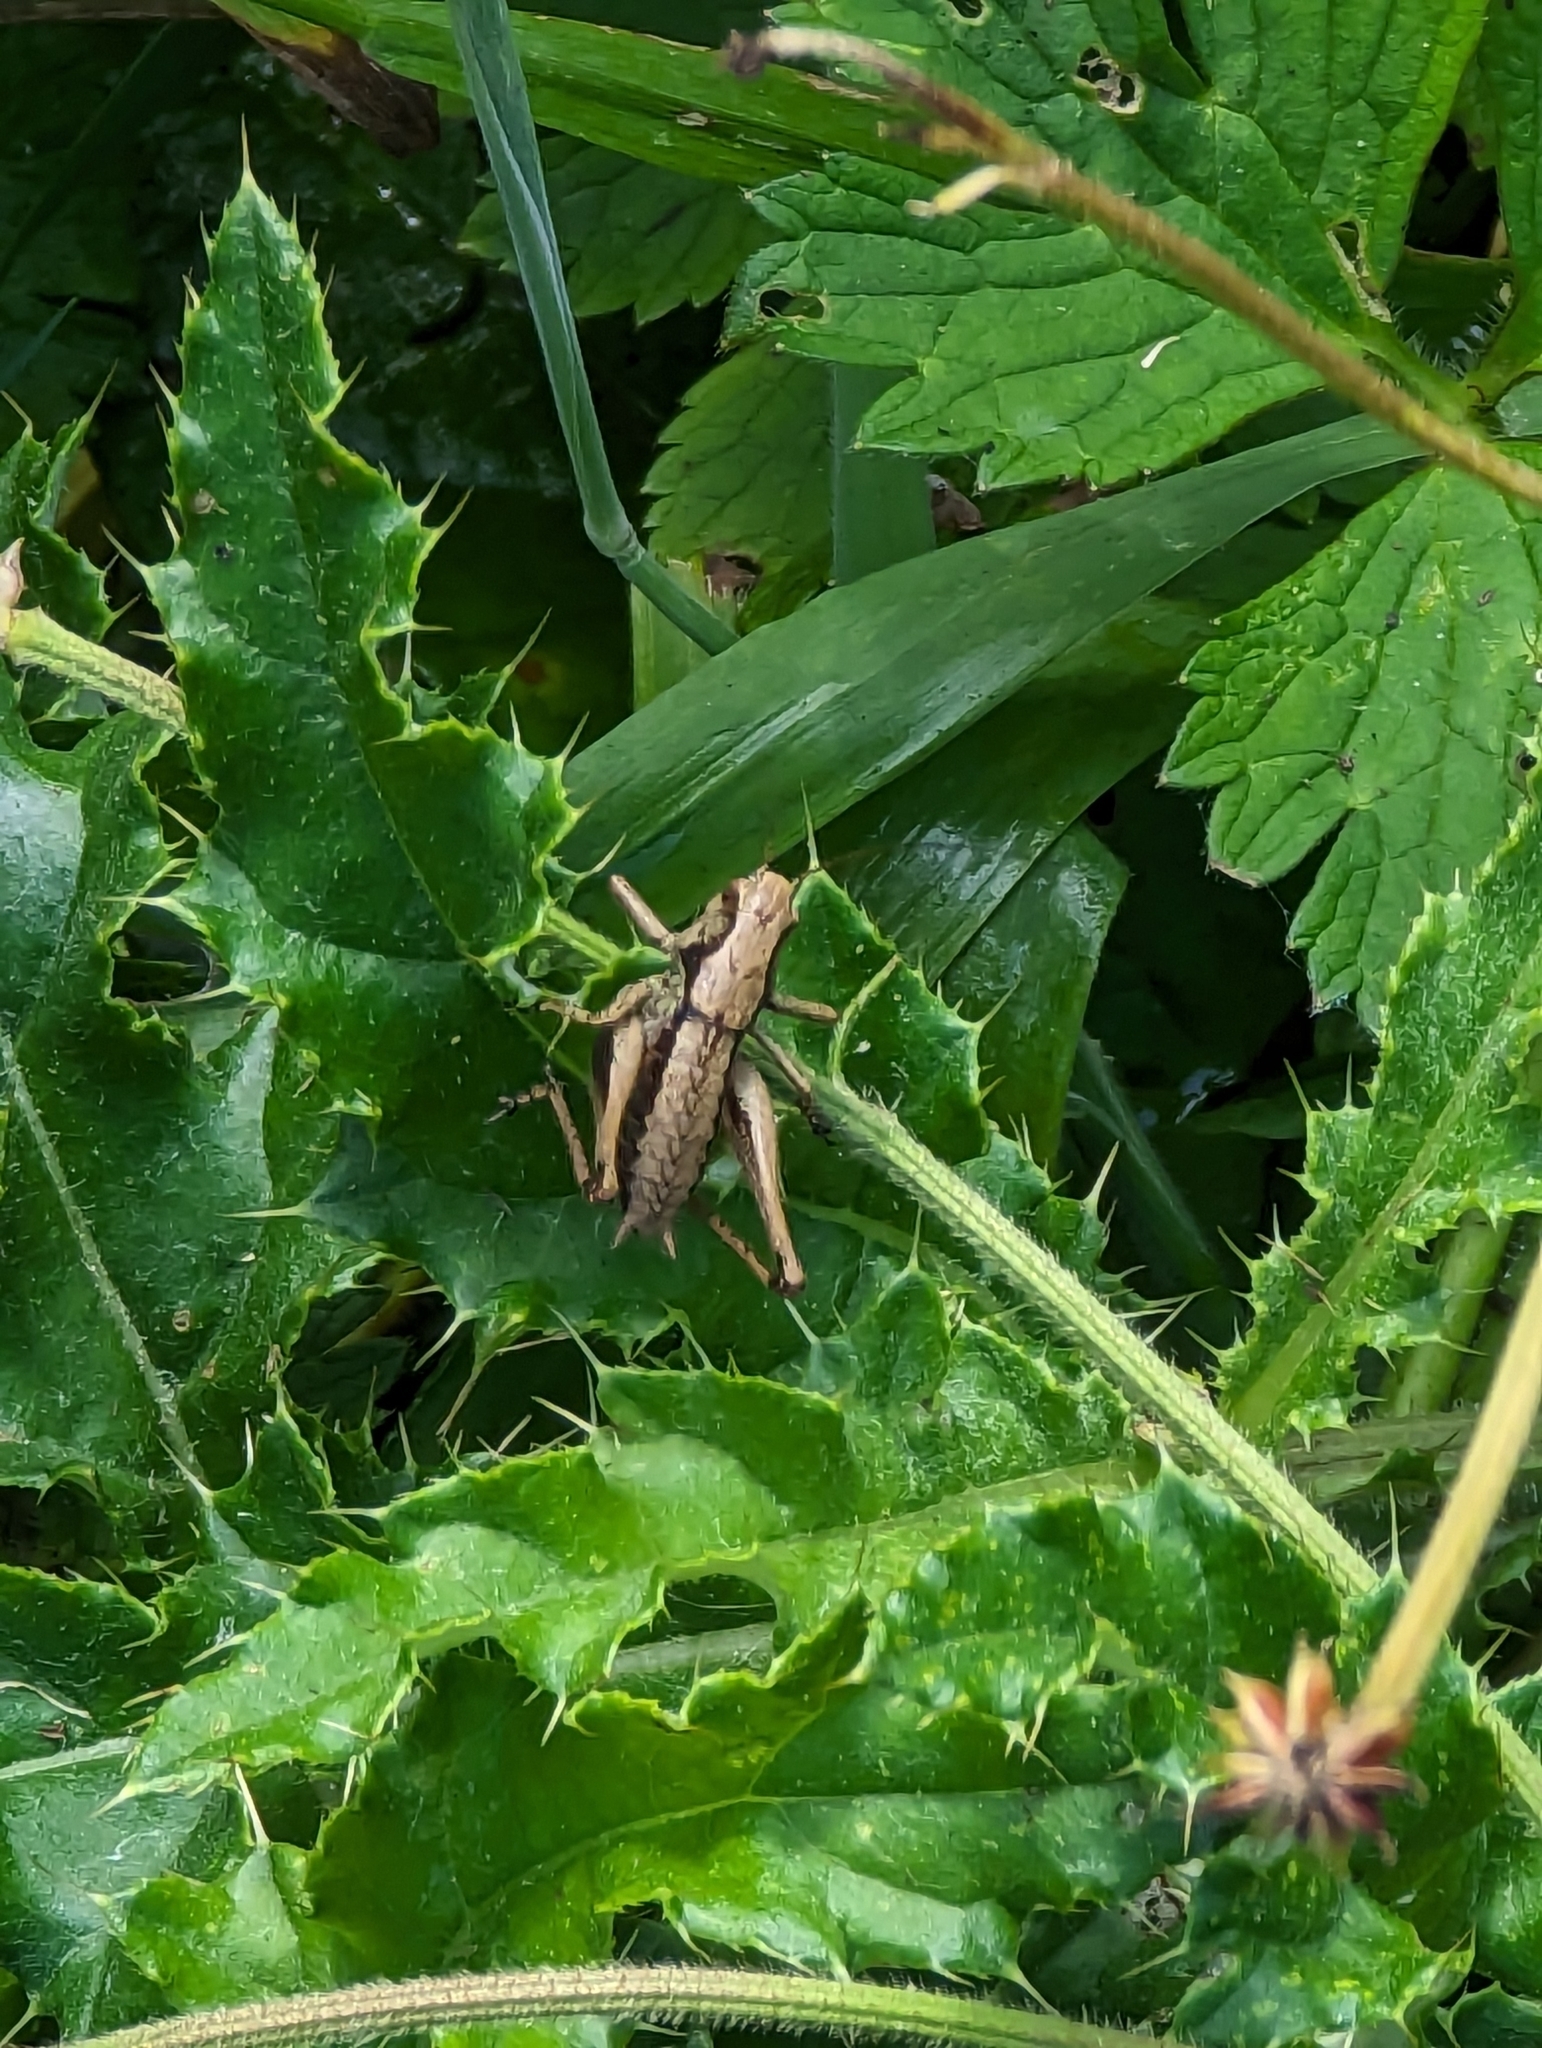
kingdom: Animalia
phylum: Arthropoda
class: Insecta
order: Orthoptera
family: Tettigoniidae
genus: Pholidoptera
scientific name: Pholidoptera griseoaptera
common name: Dark bush-cricket
